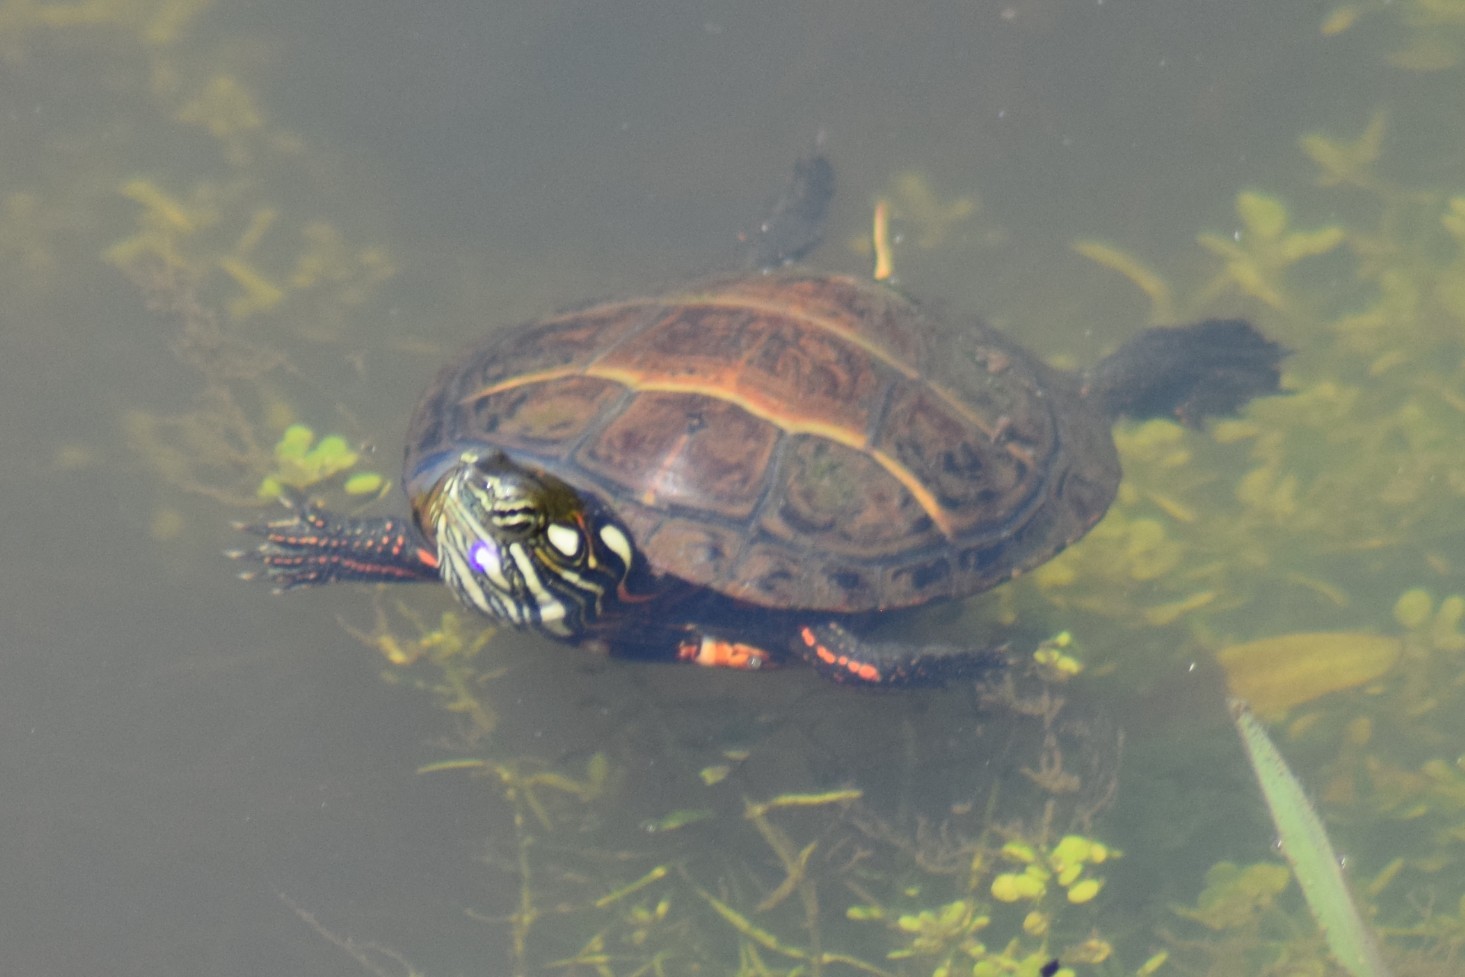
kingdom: Animalia
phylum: Chordata
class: Testudines
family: Emydidae
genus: Chrysemys
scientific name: Chrysemys picta
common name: Painted turtle
